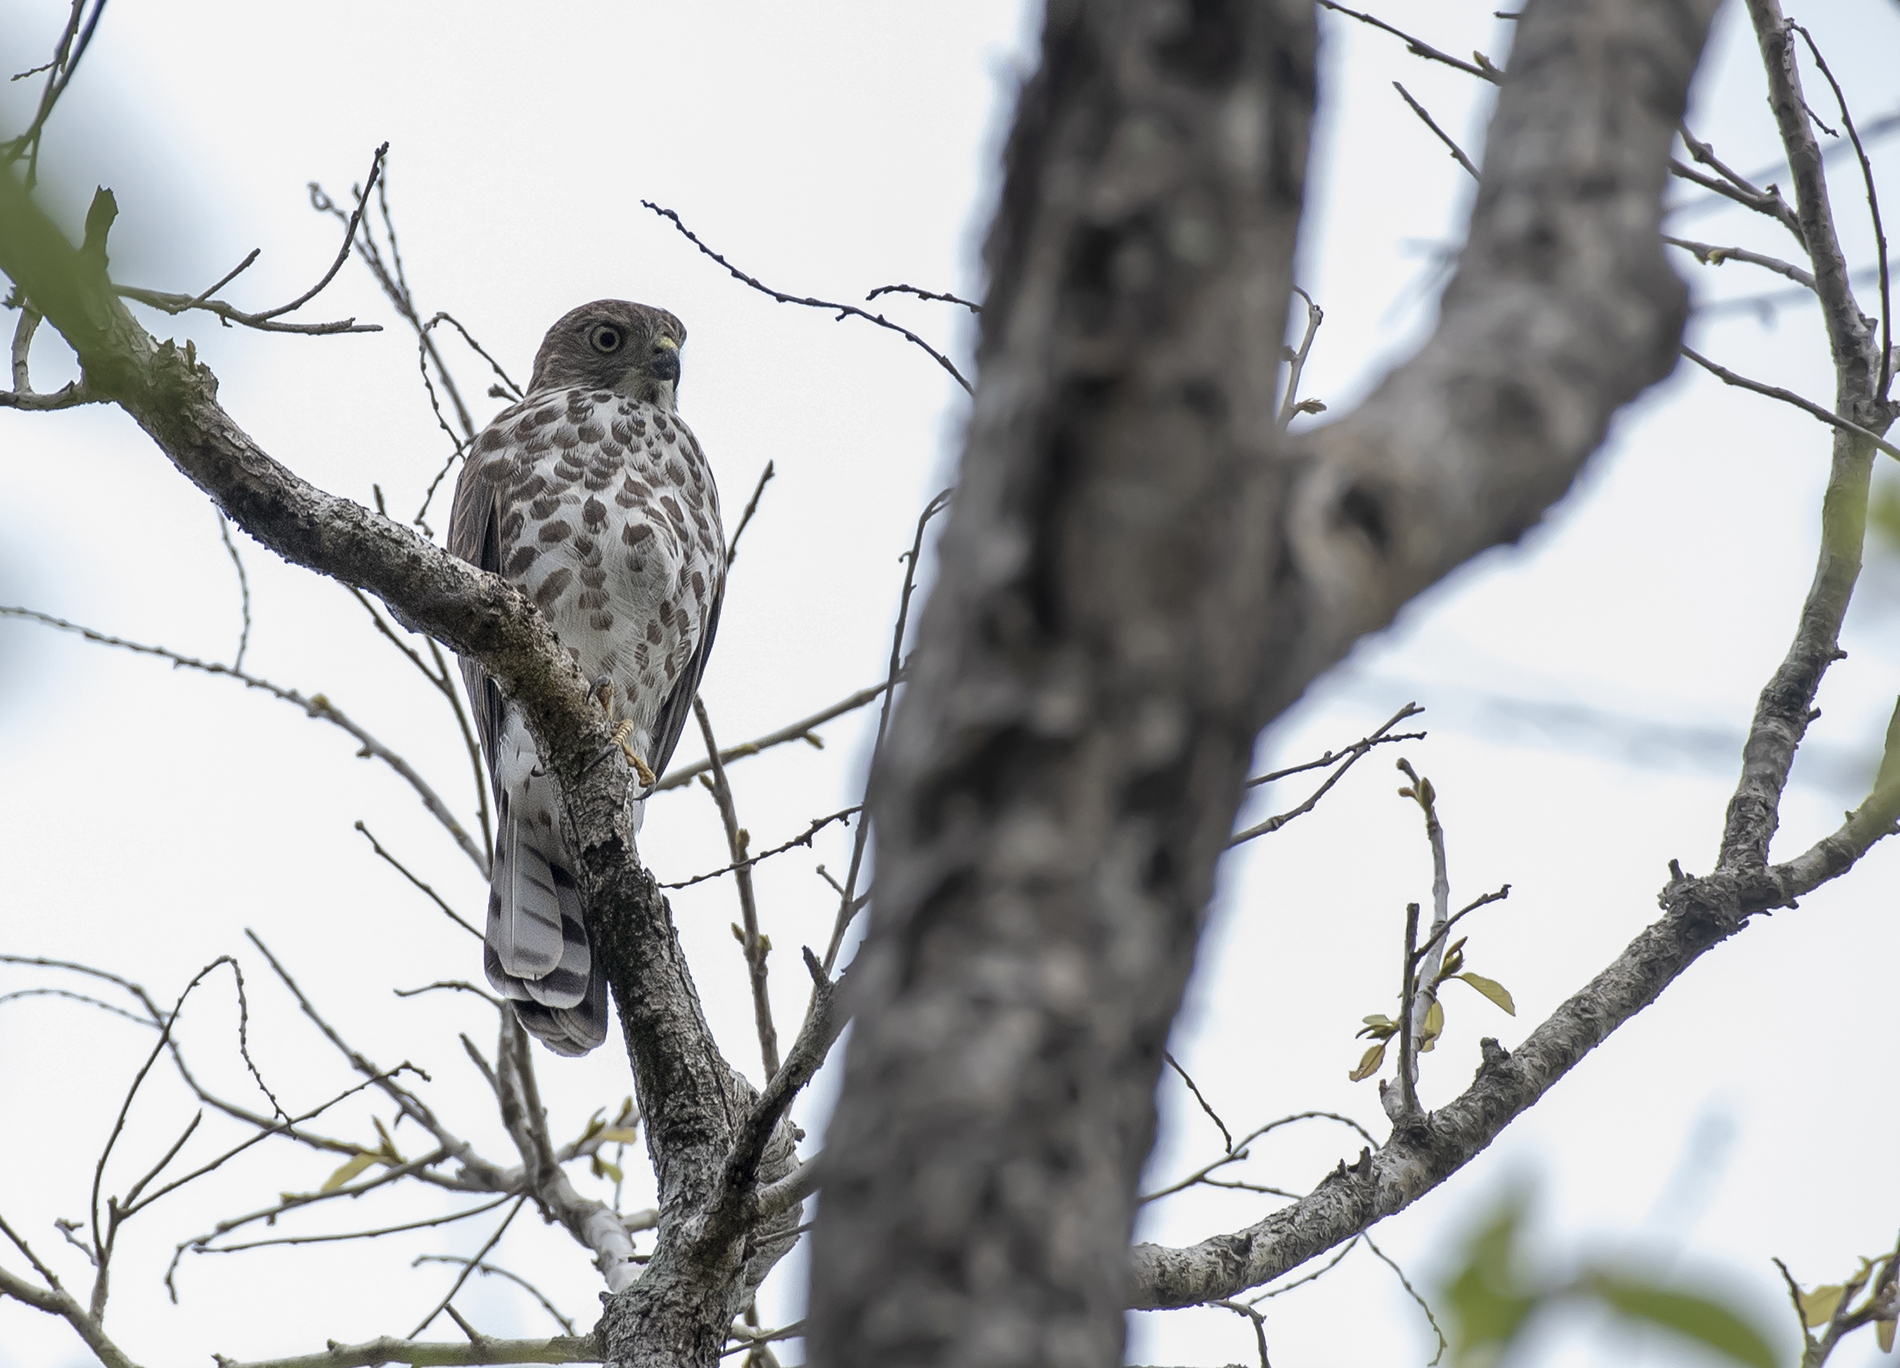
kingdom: Animalia
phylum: Chordata
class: Aves
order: Accipitriformes
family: Accipitridae
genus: Accipiter
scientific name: Accipiter virgatus
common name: Besra
